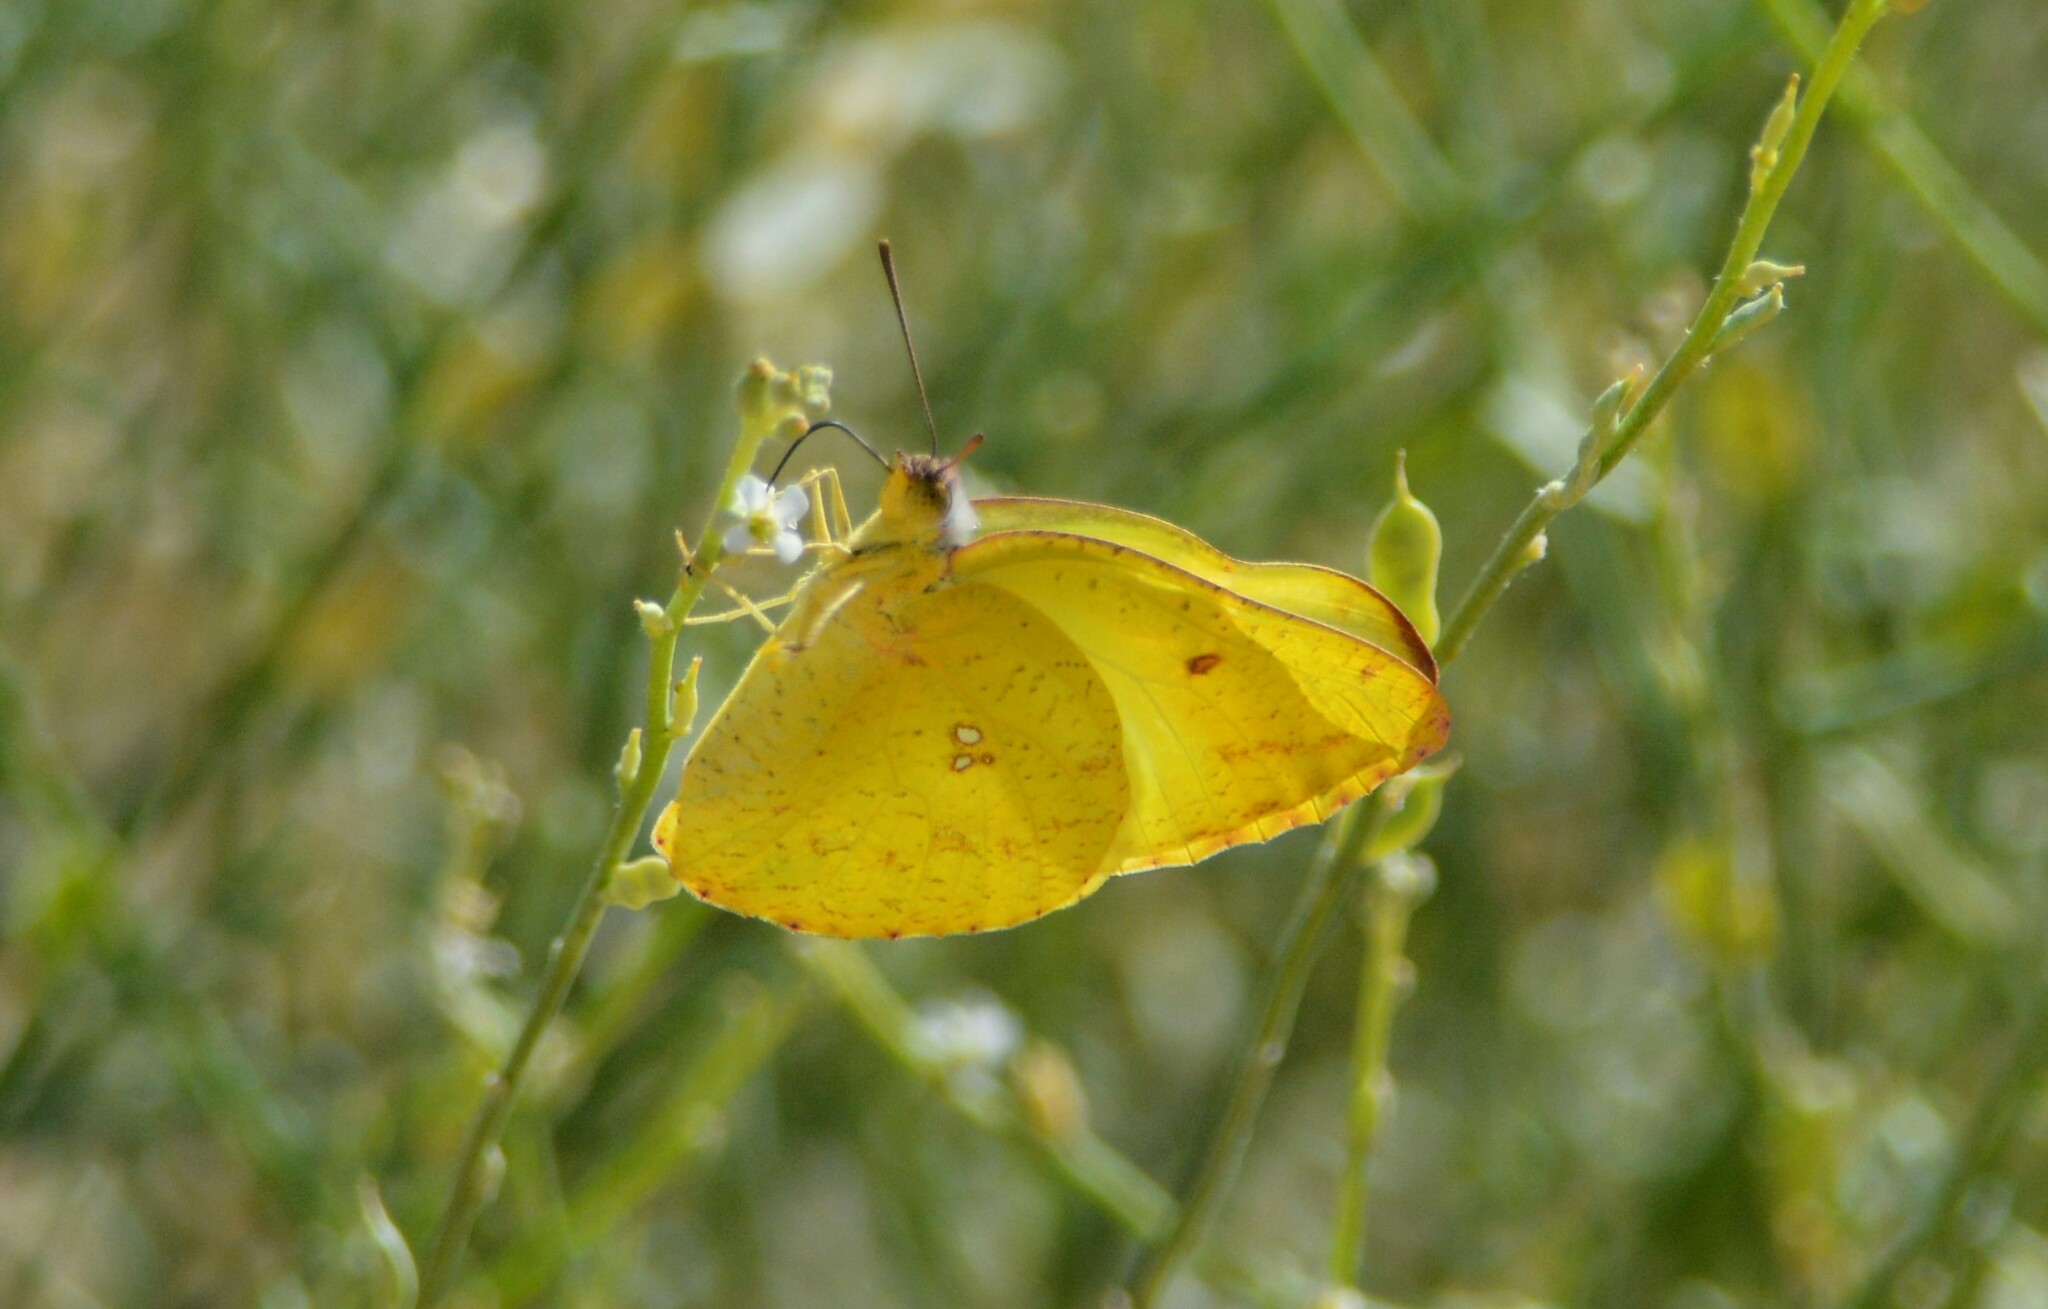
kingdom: Animalia
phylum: Arthropoda
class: Insecta
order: Lepidoptera
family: Pieridae
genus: Catopsilia
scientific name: Catopsilia florella
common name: African migrant
